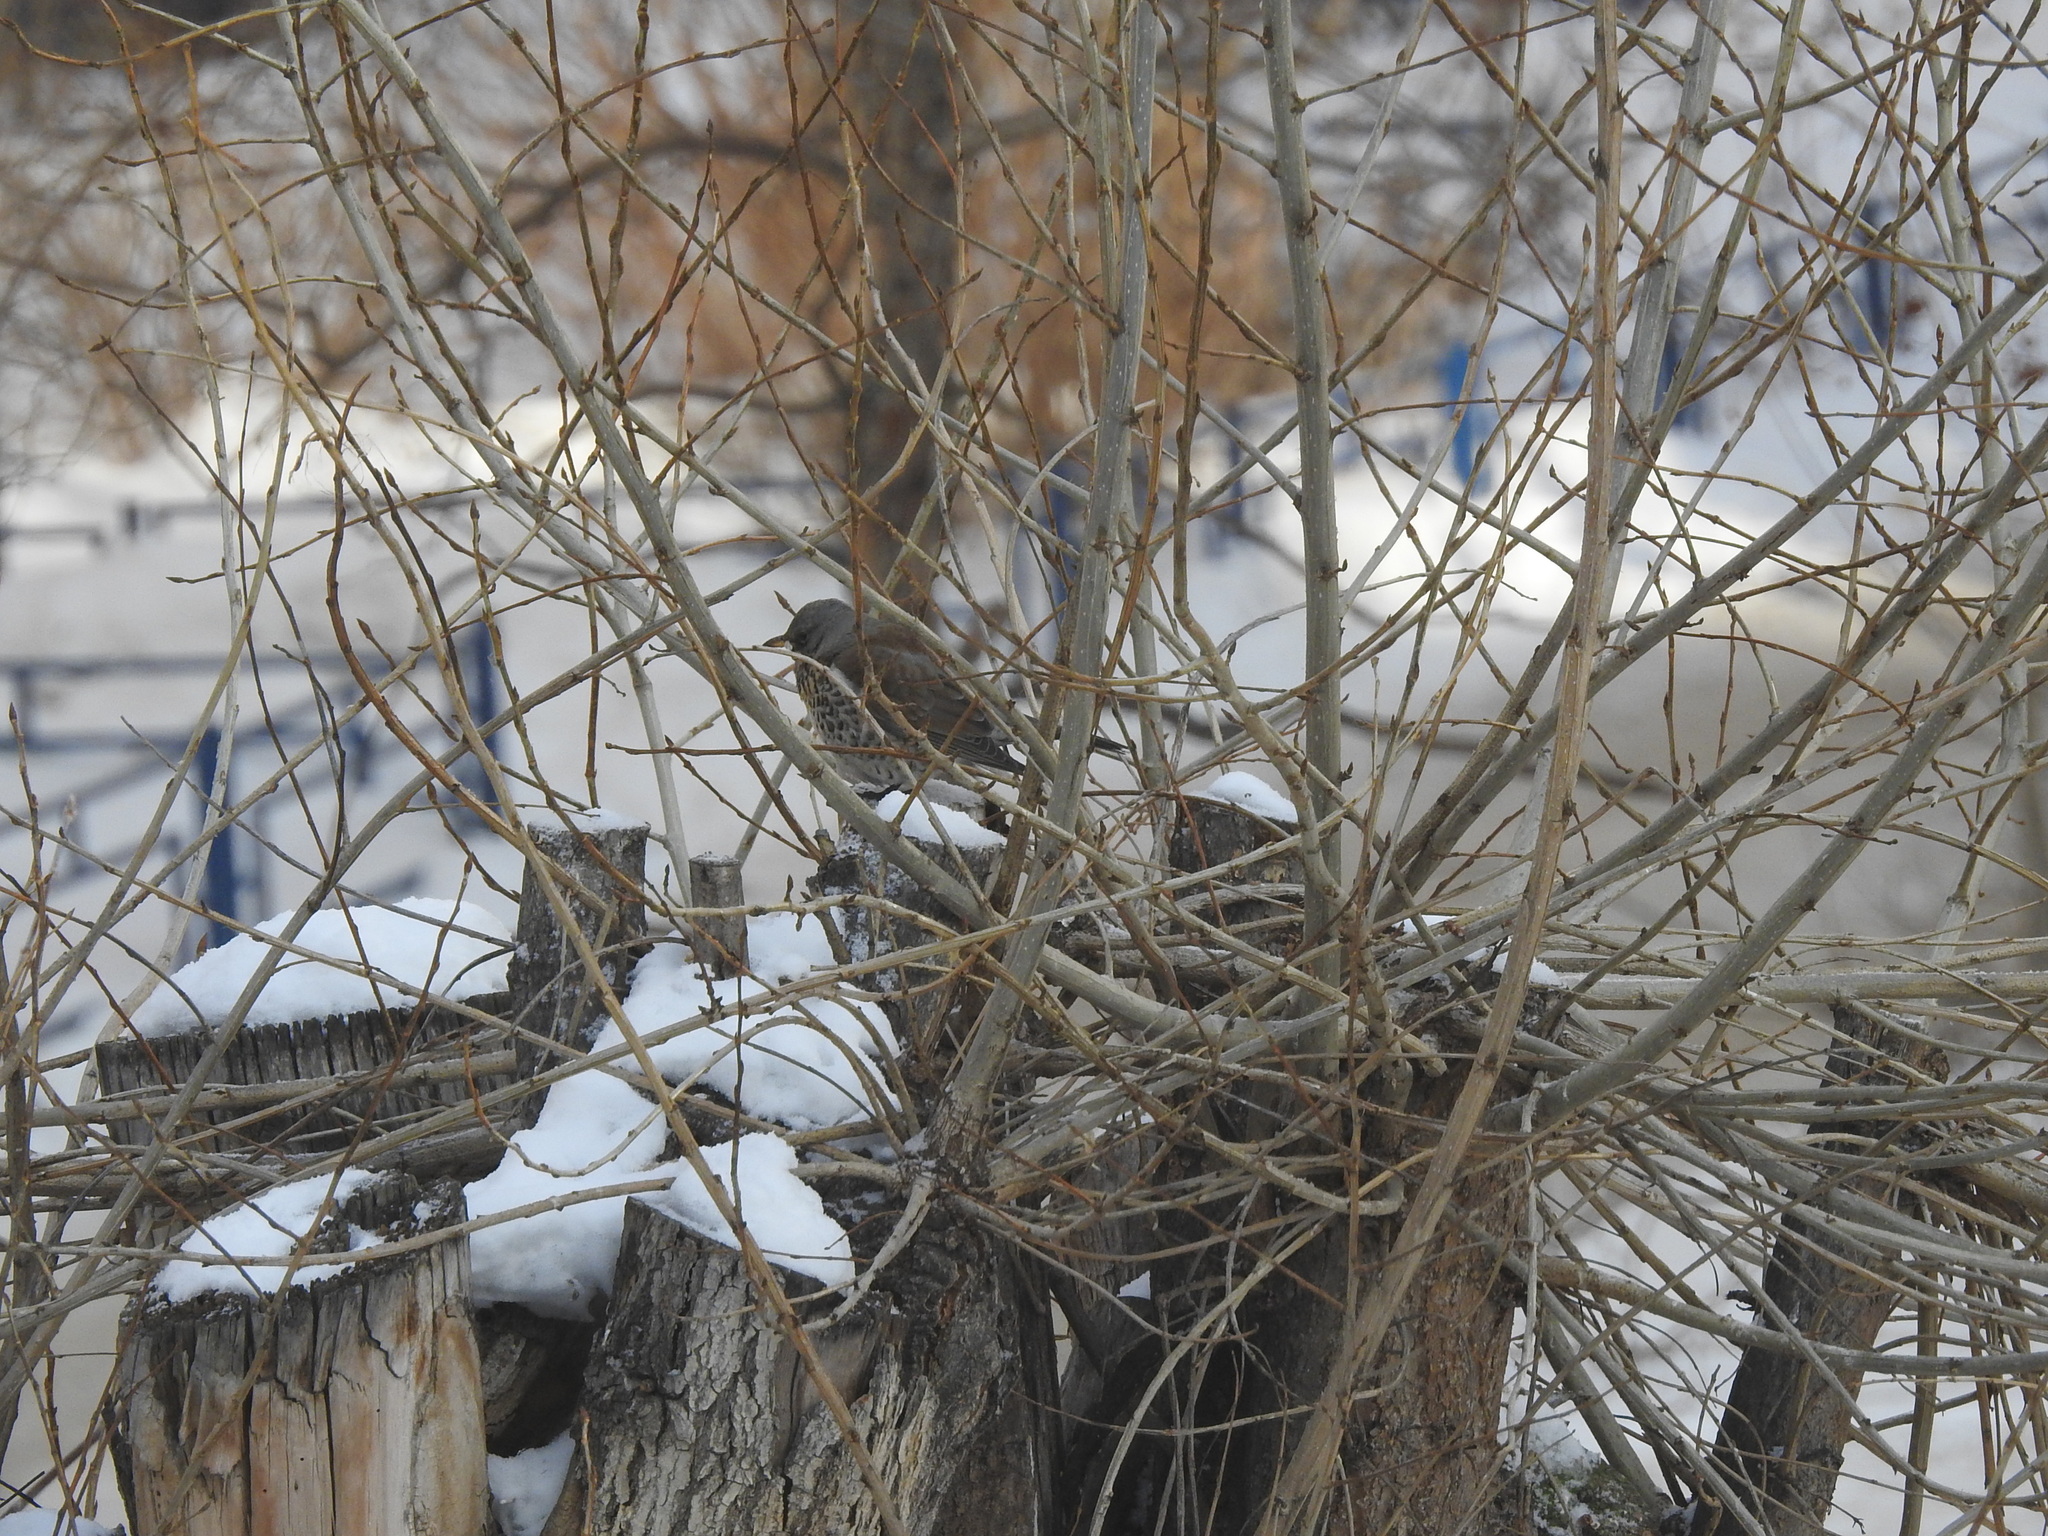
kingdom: Animalia
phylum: Chordata
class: Aves
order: Passeriformes
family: Turdidae
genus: Turdus
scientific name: Turdus pilaris
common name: Fieldfare
